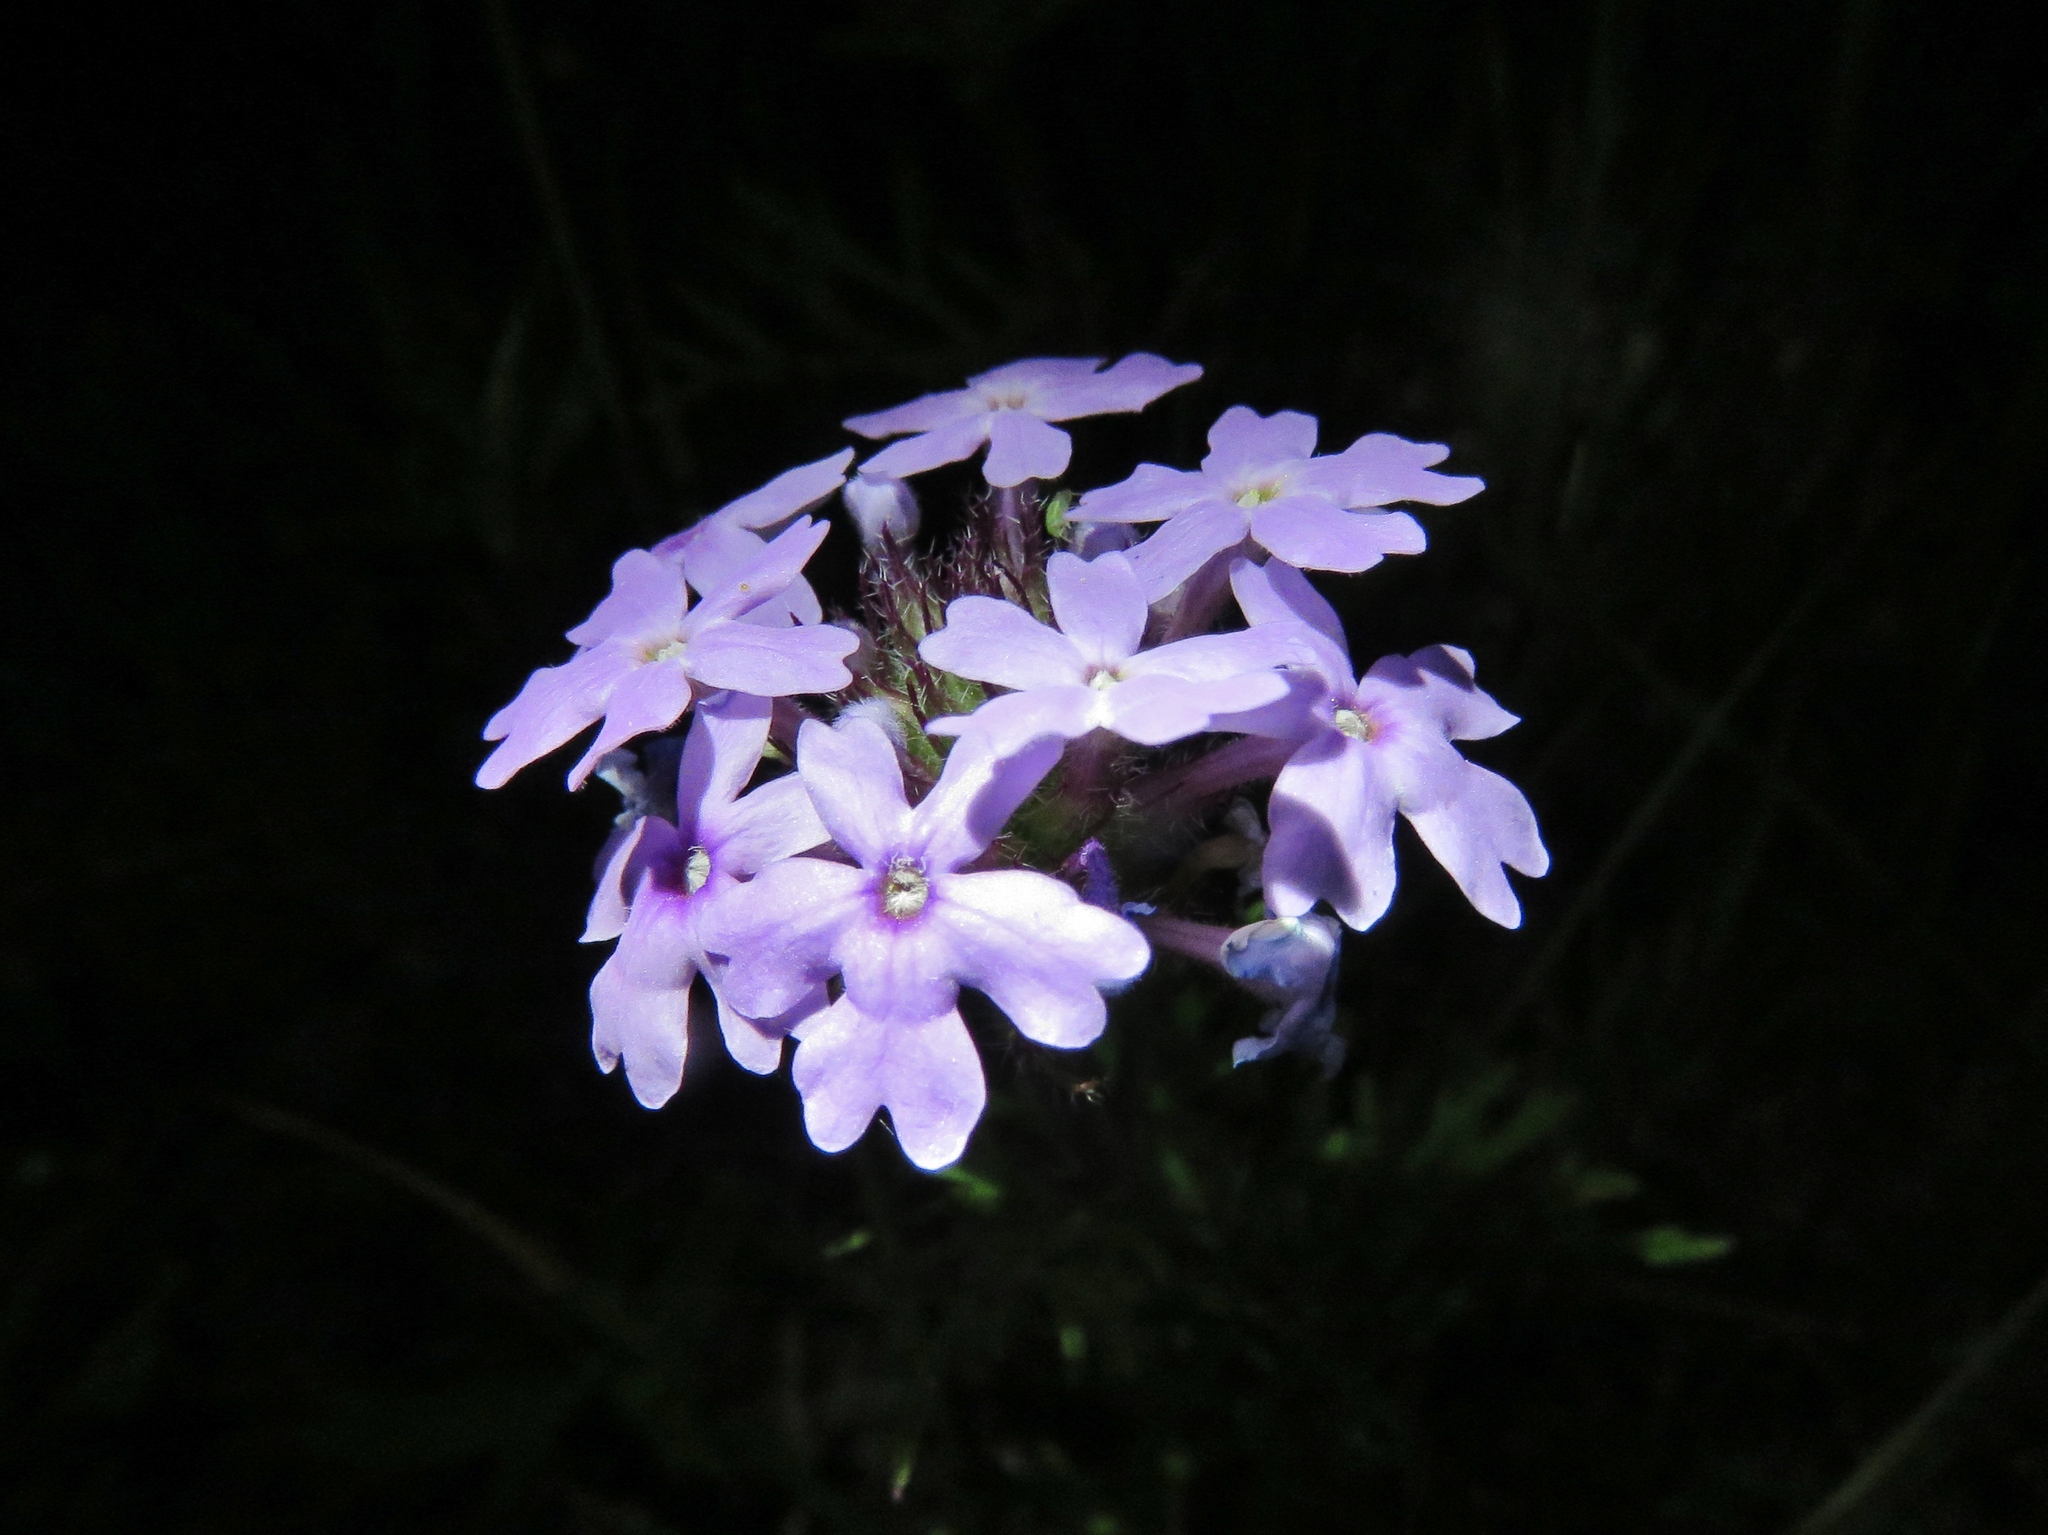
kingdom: Plantae
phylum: Tracheophyta
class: Magnoliopsida
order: Lamiales
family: Verbenaceae
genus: Verbena
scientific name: Verbena bipinnatifida
